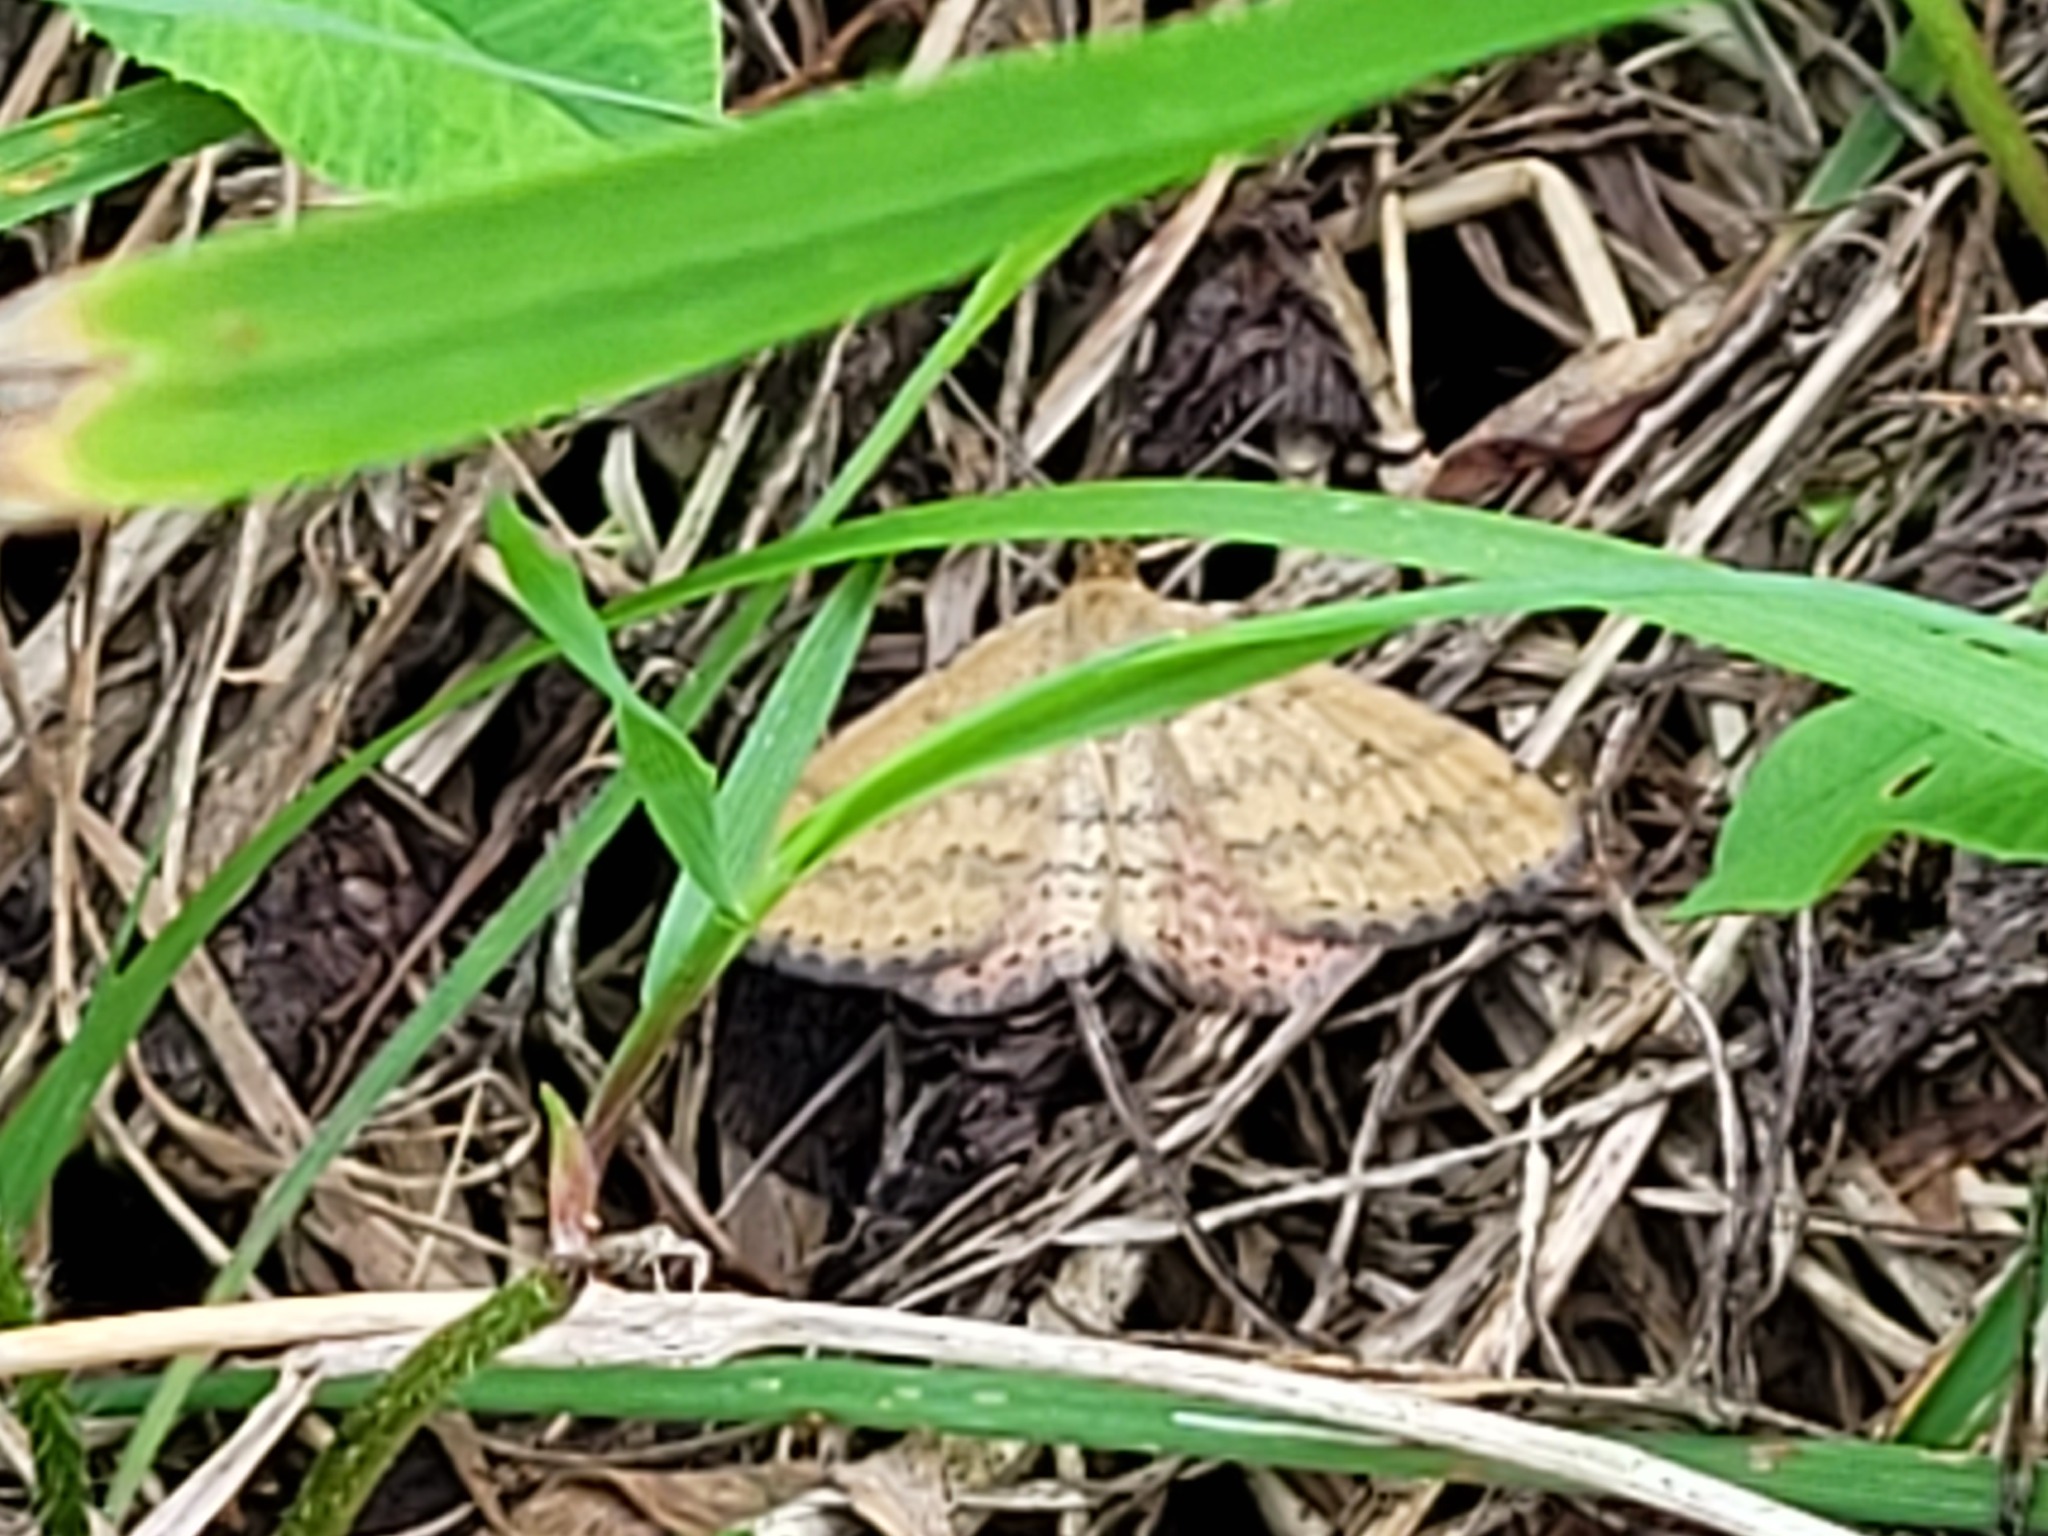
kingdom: Animalia
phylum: Arthropoda
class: Insecta
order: Lepidoptera
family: Geometridae
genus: Scopula
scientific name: Scopula rubraria
